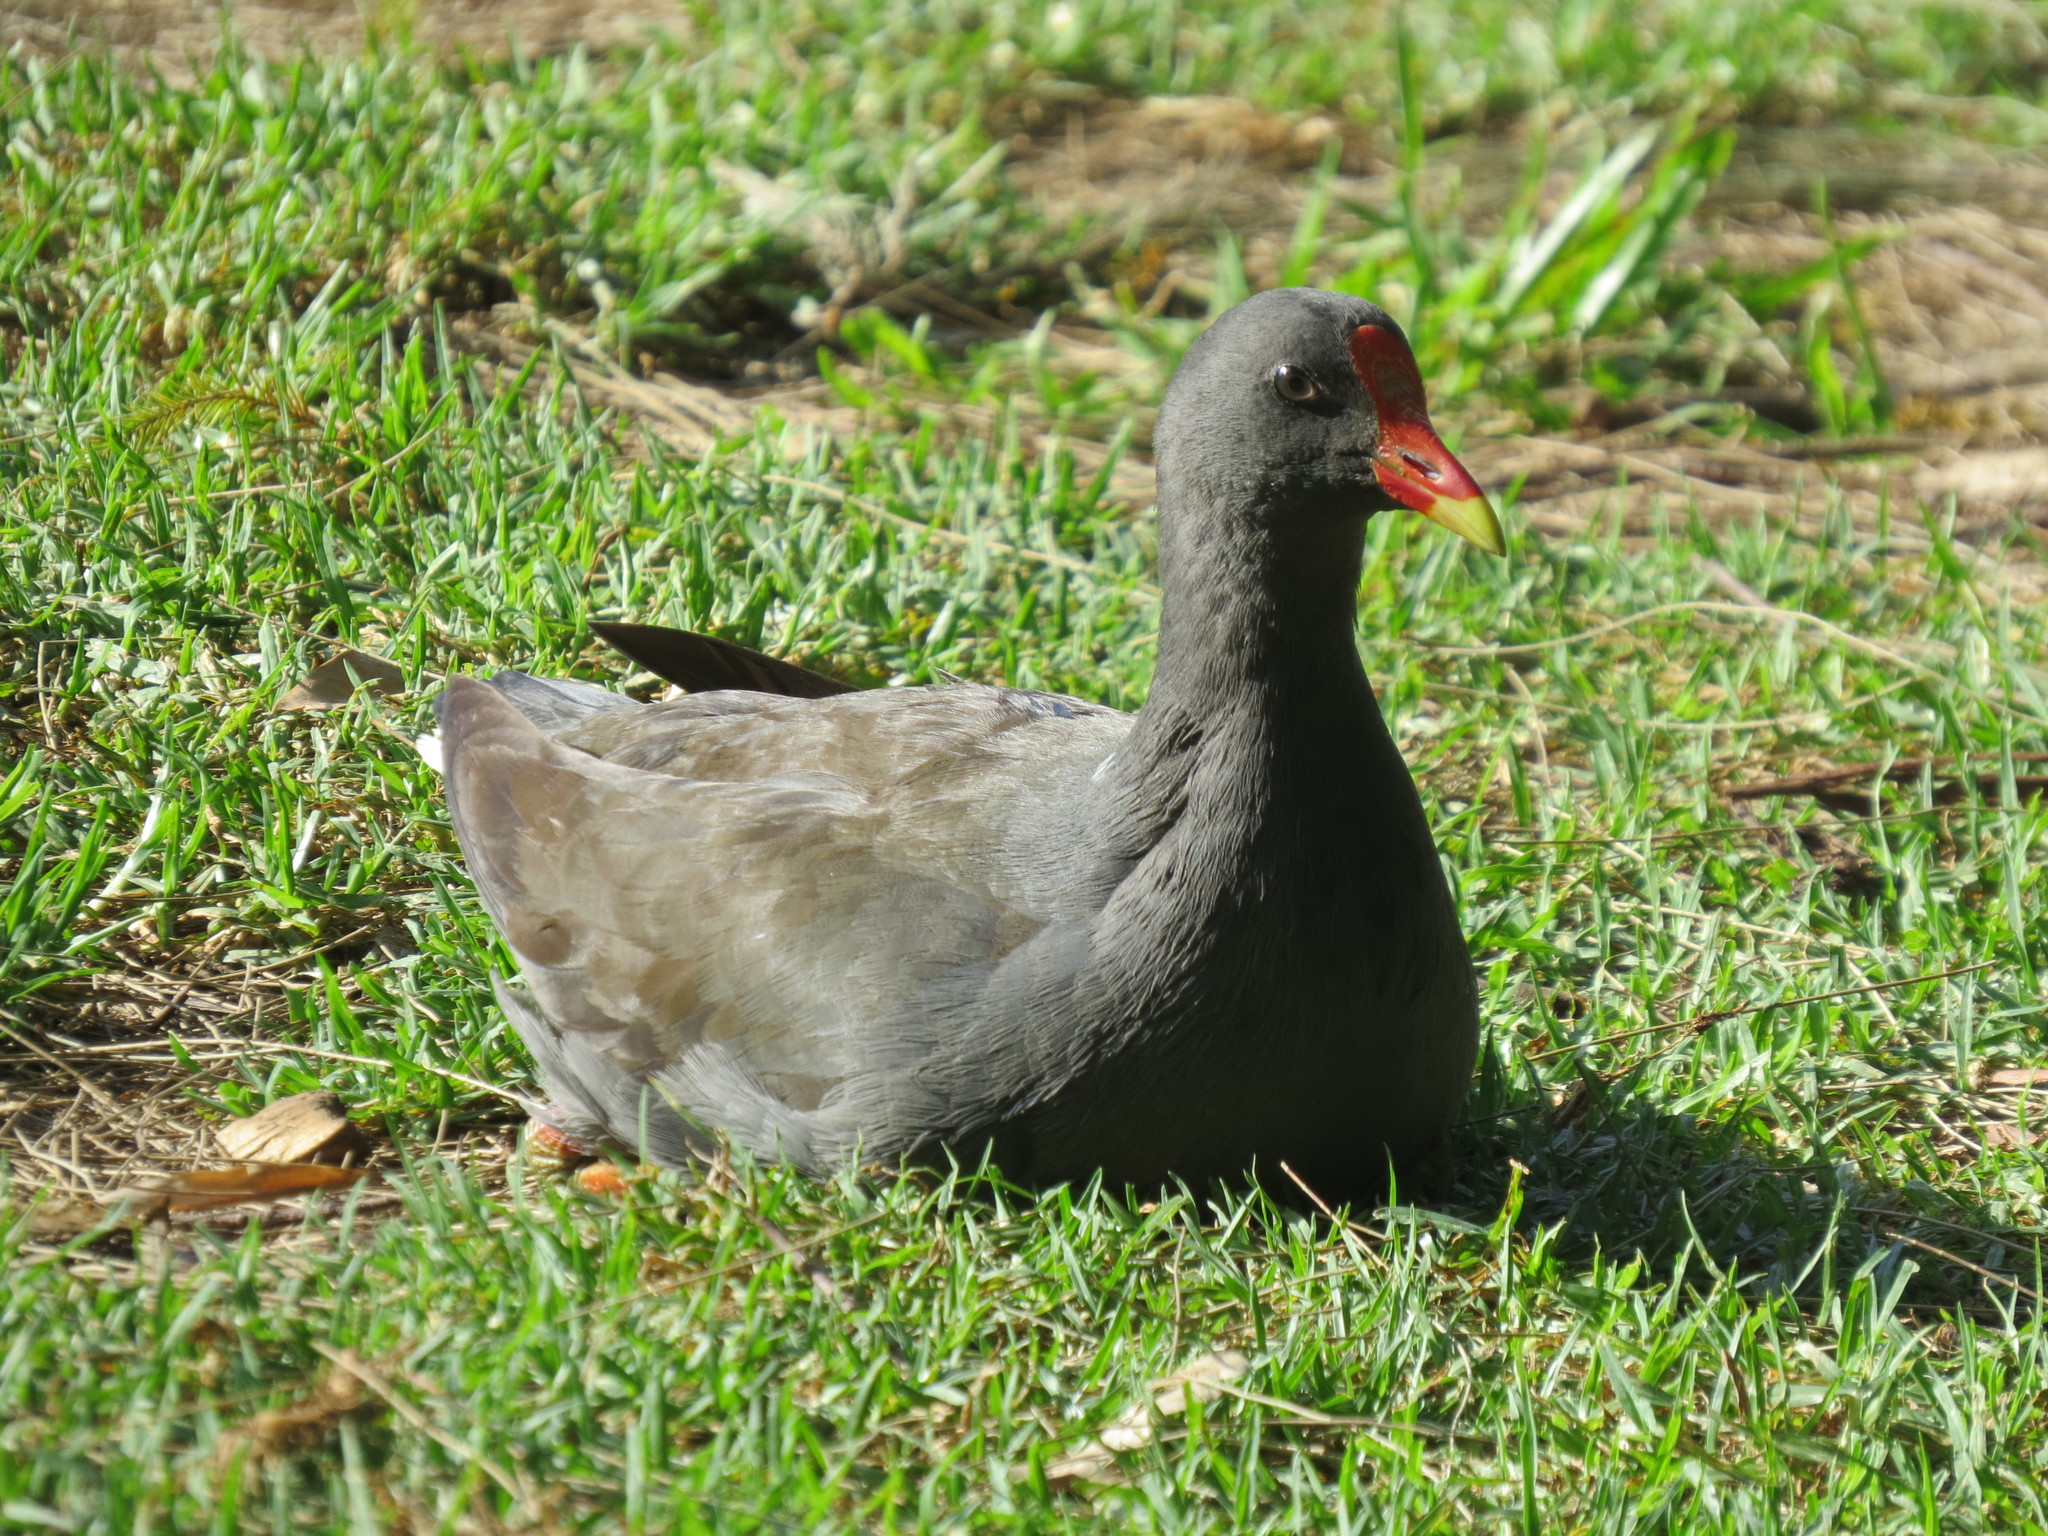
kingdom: Animalia
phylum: Chordata
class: Aves
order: Gruiformes
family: Rallidae
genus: Gallinula
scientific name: Gallinula tenebrosa
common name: Dusky moorhen
